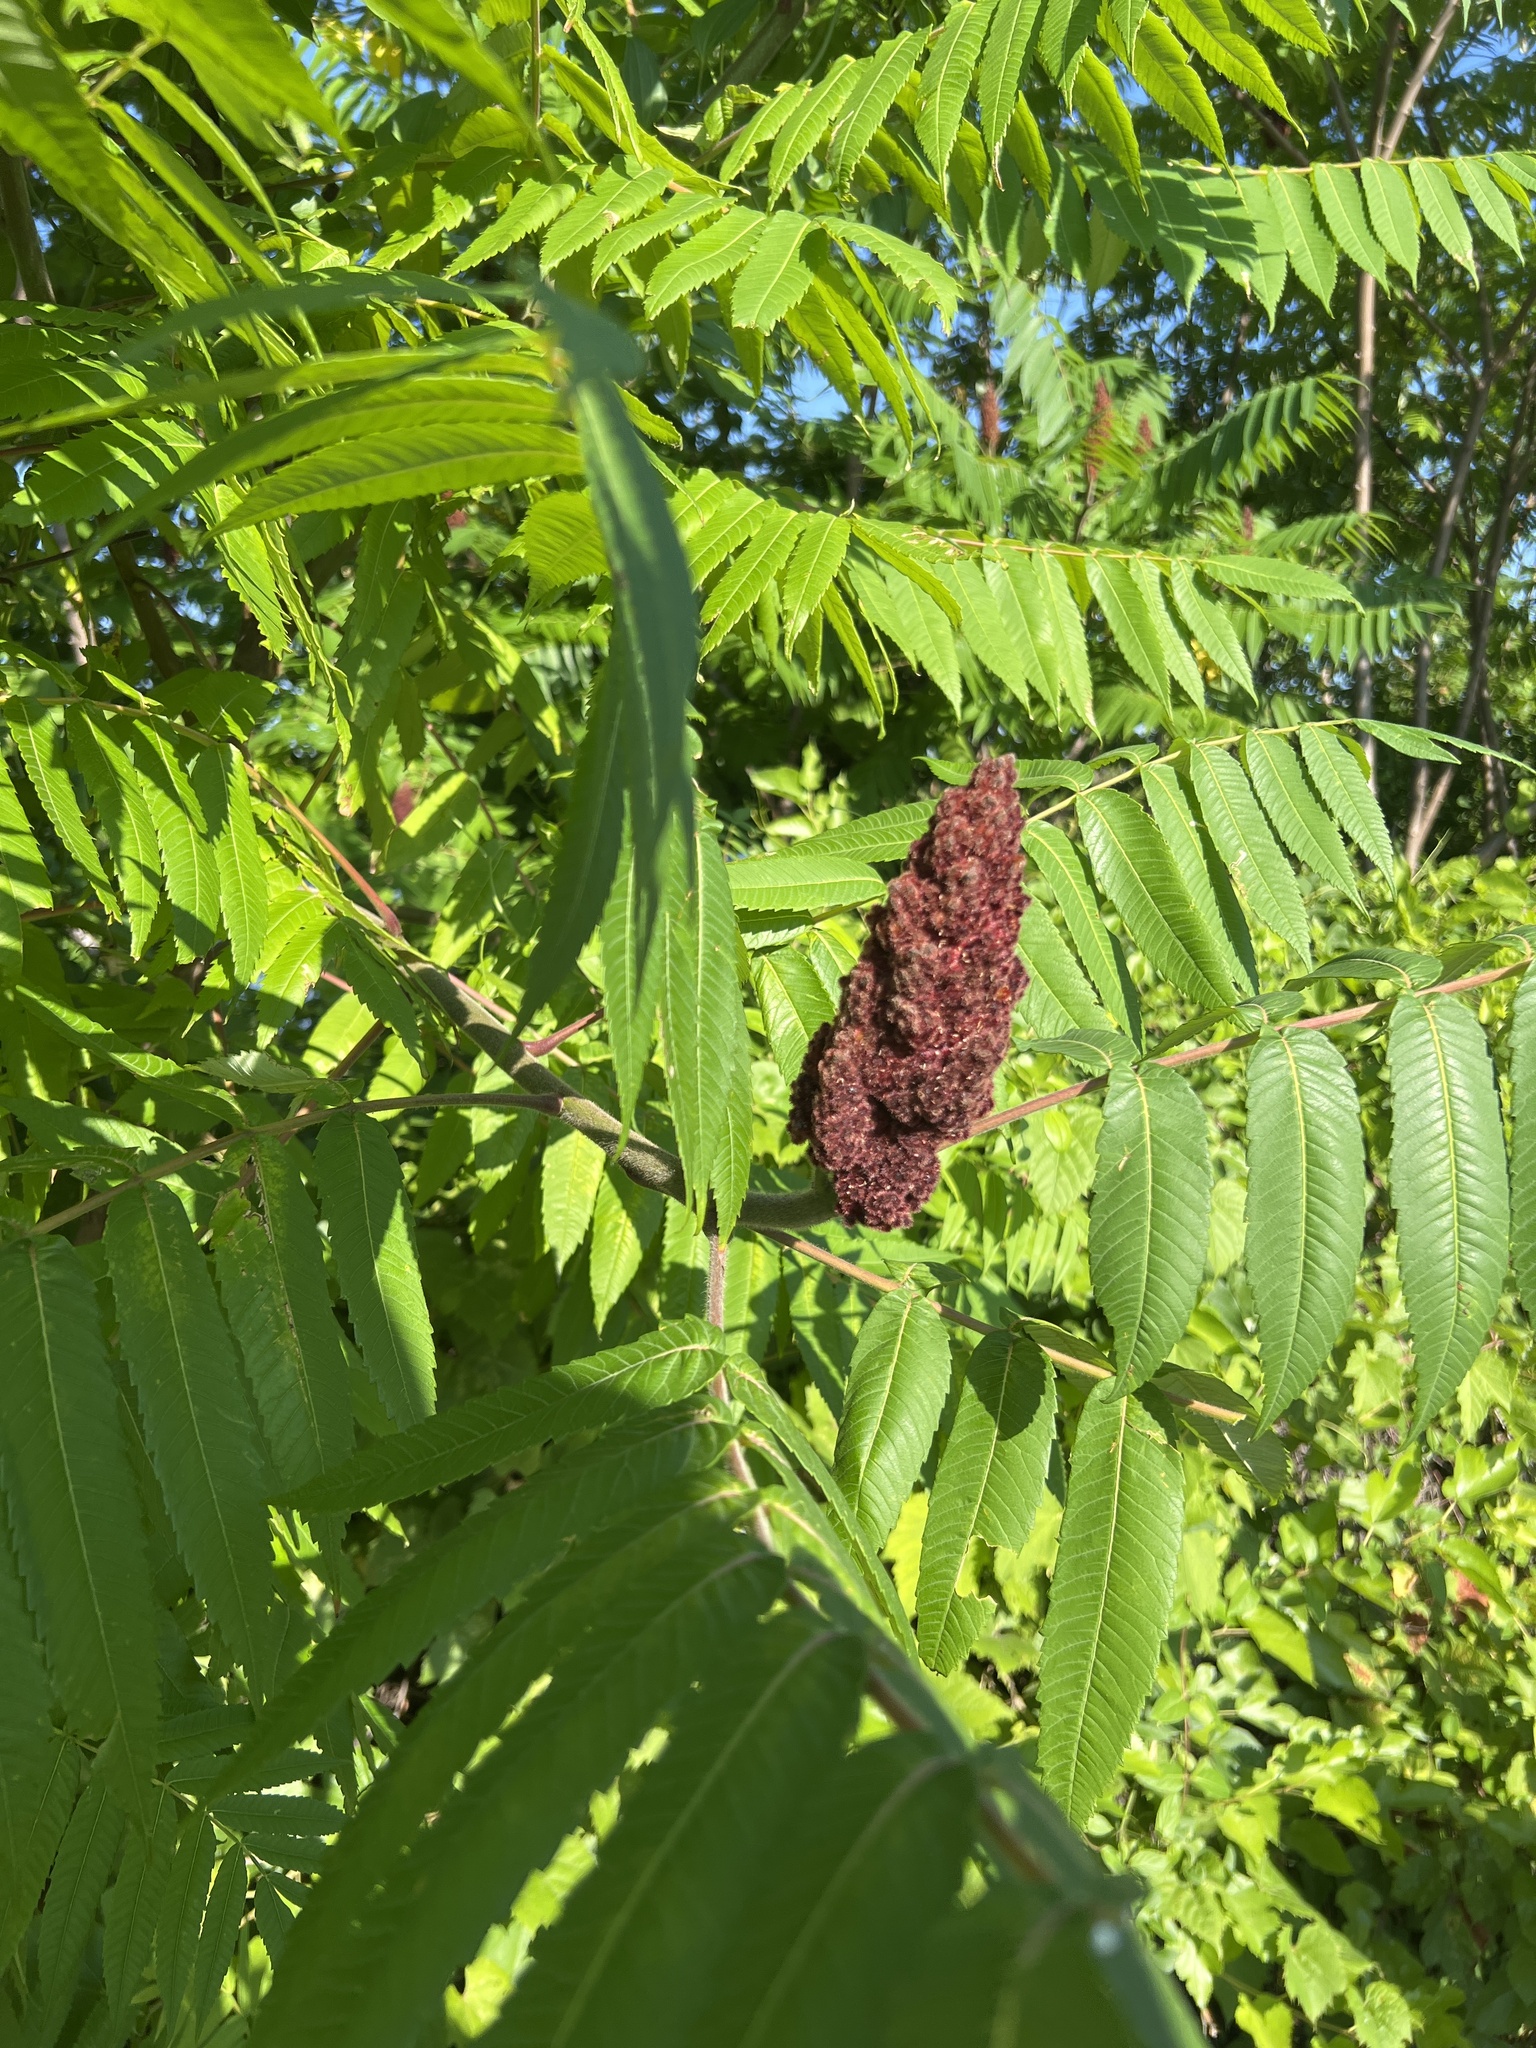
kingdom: Plantae
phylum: Tracheophyta
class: Magnoliopsida
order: Sapindales
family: Anacardiaceae
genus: Rhus
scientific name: Rhus typhina
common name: Staghorn sumac
